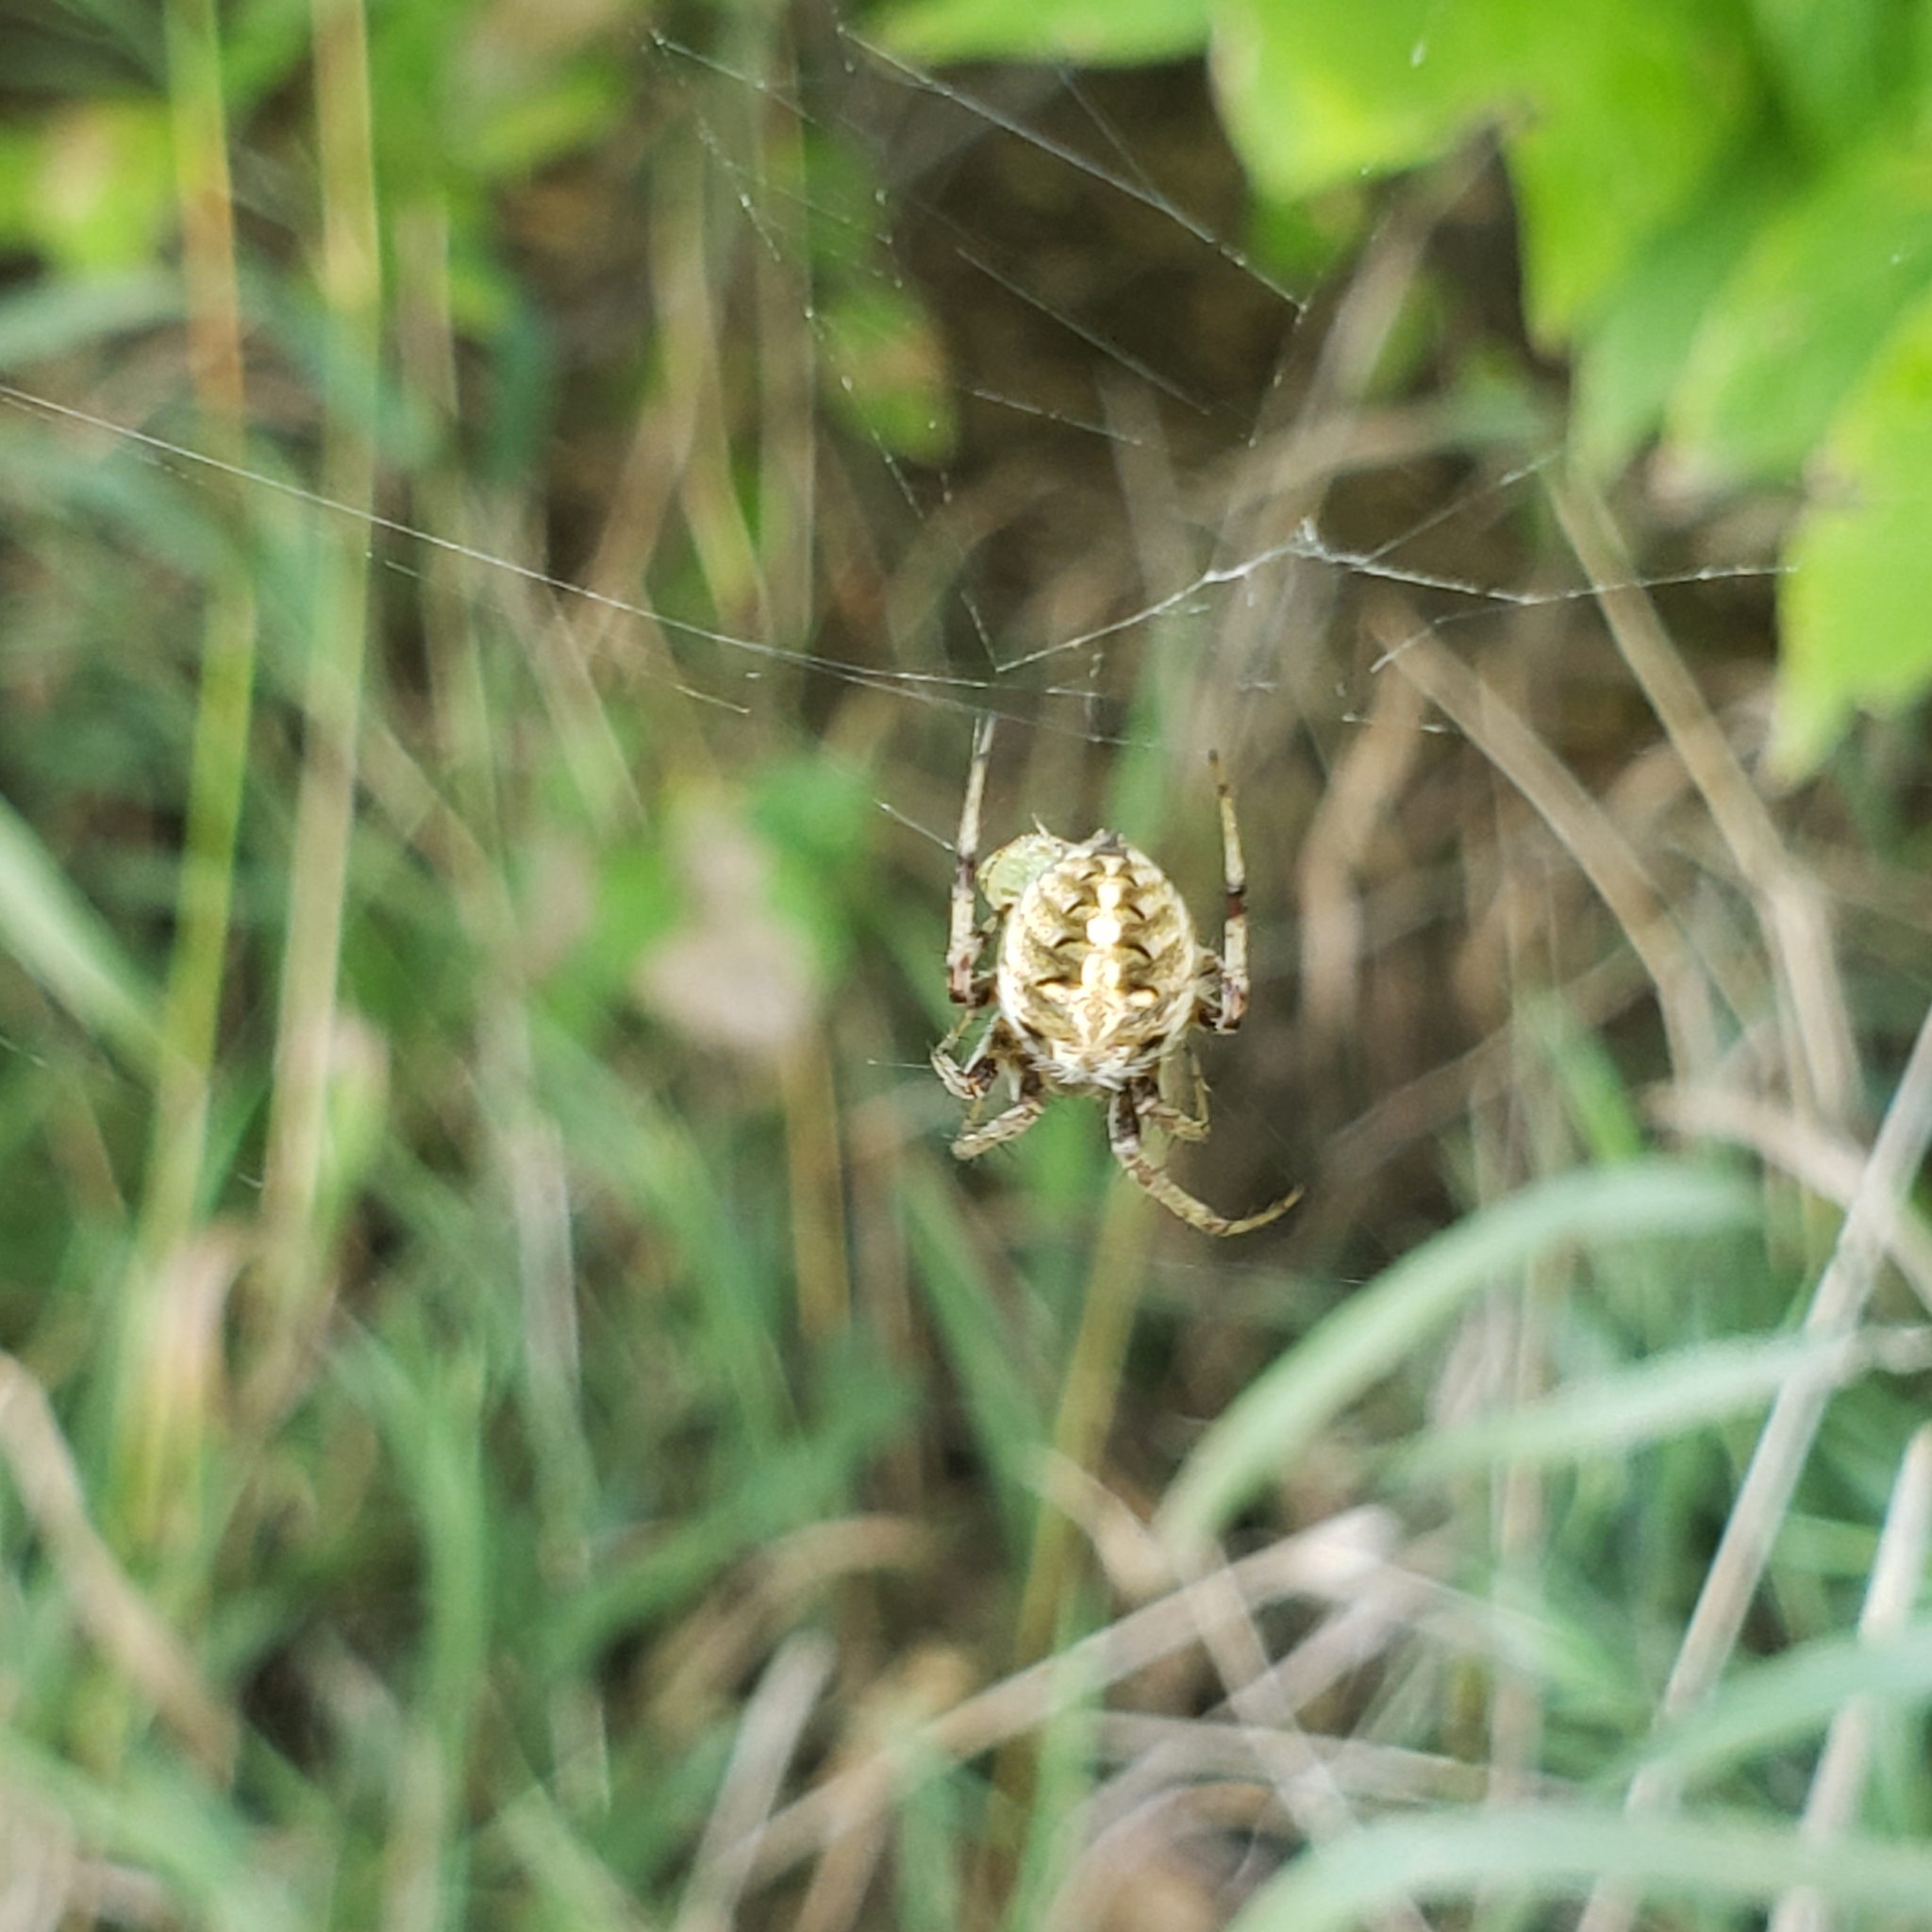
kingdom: Animalia
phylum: Arthropoda
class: Arachnida
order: Araneae
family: Araneidae
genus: Neoscona
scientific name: Neoscona arabesca
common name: Orb weavers
